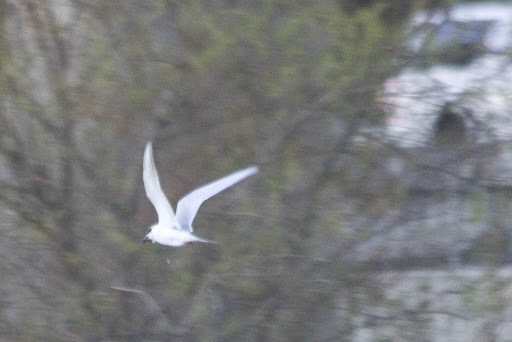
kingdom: Animalia
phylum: Chordata
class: Aves
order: Charadriiformes
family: Laridae
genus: Sterna
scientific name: Sterna forsteri
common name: Forster's tern
